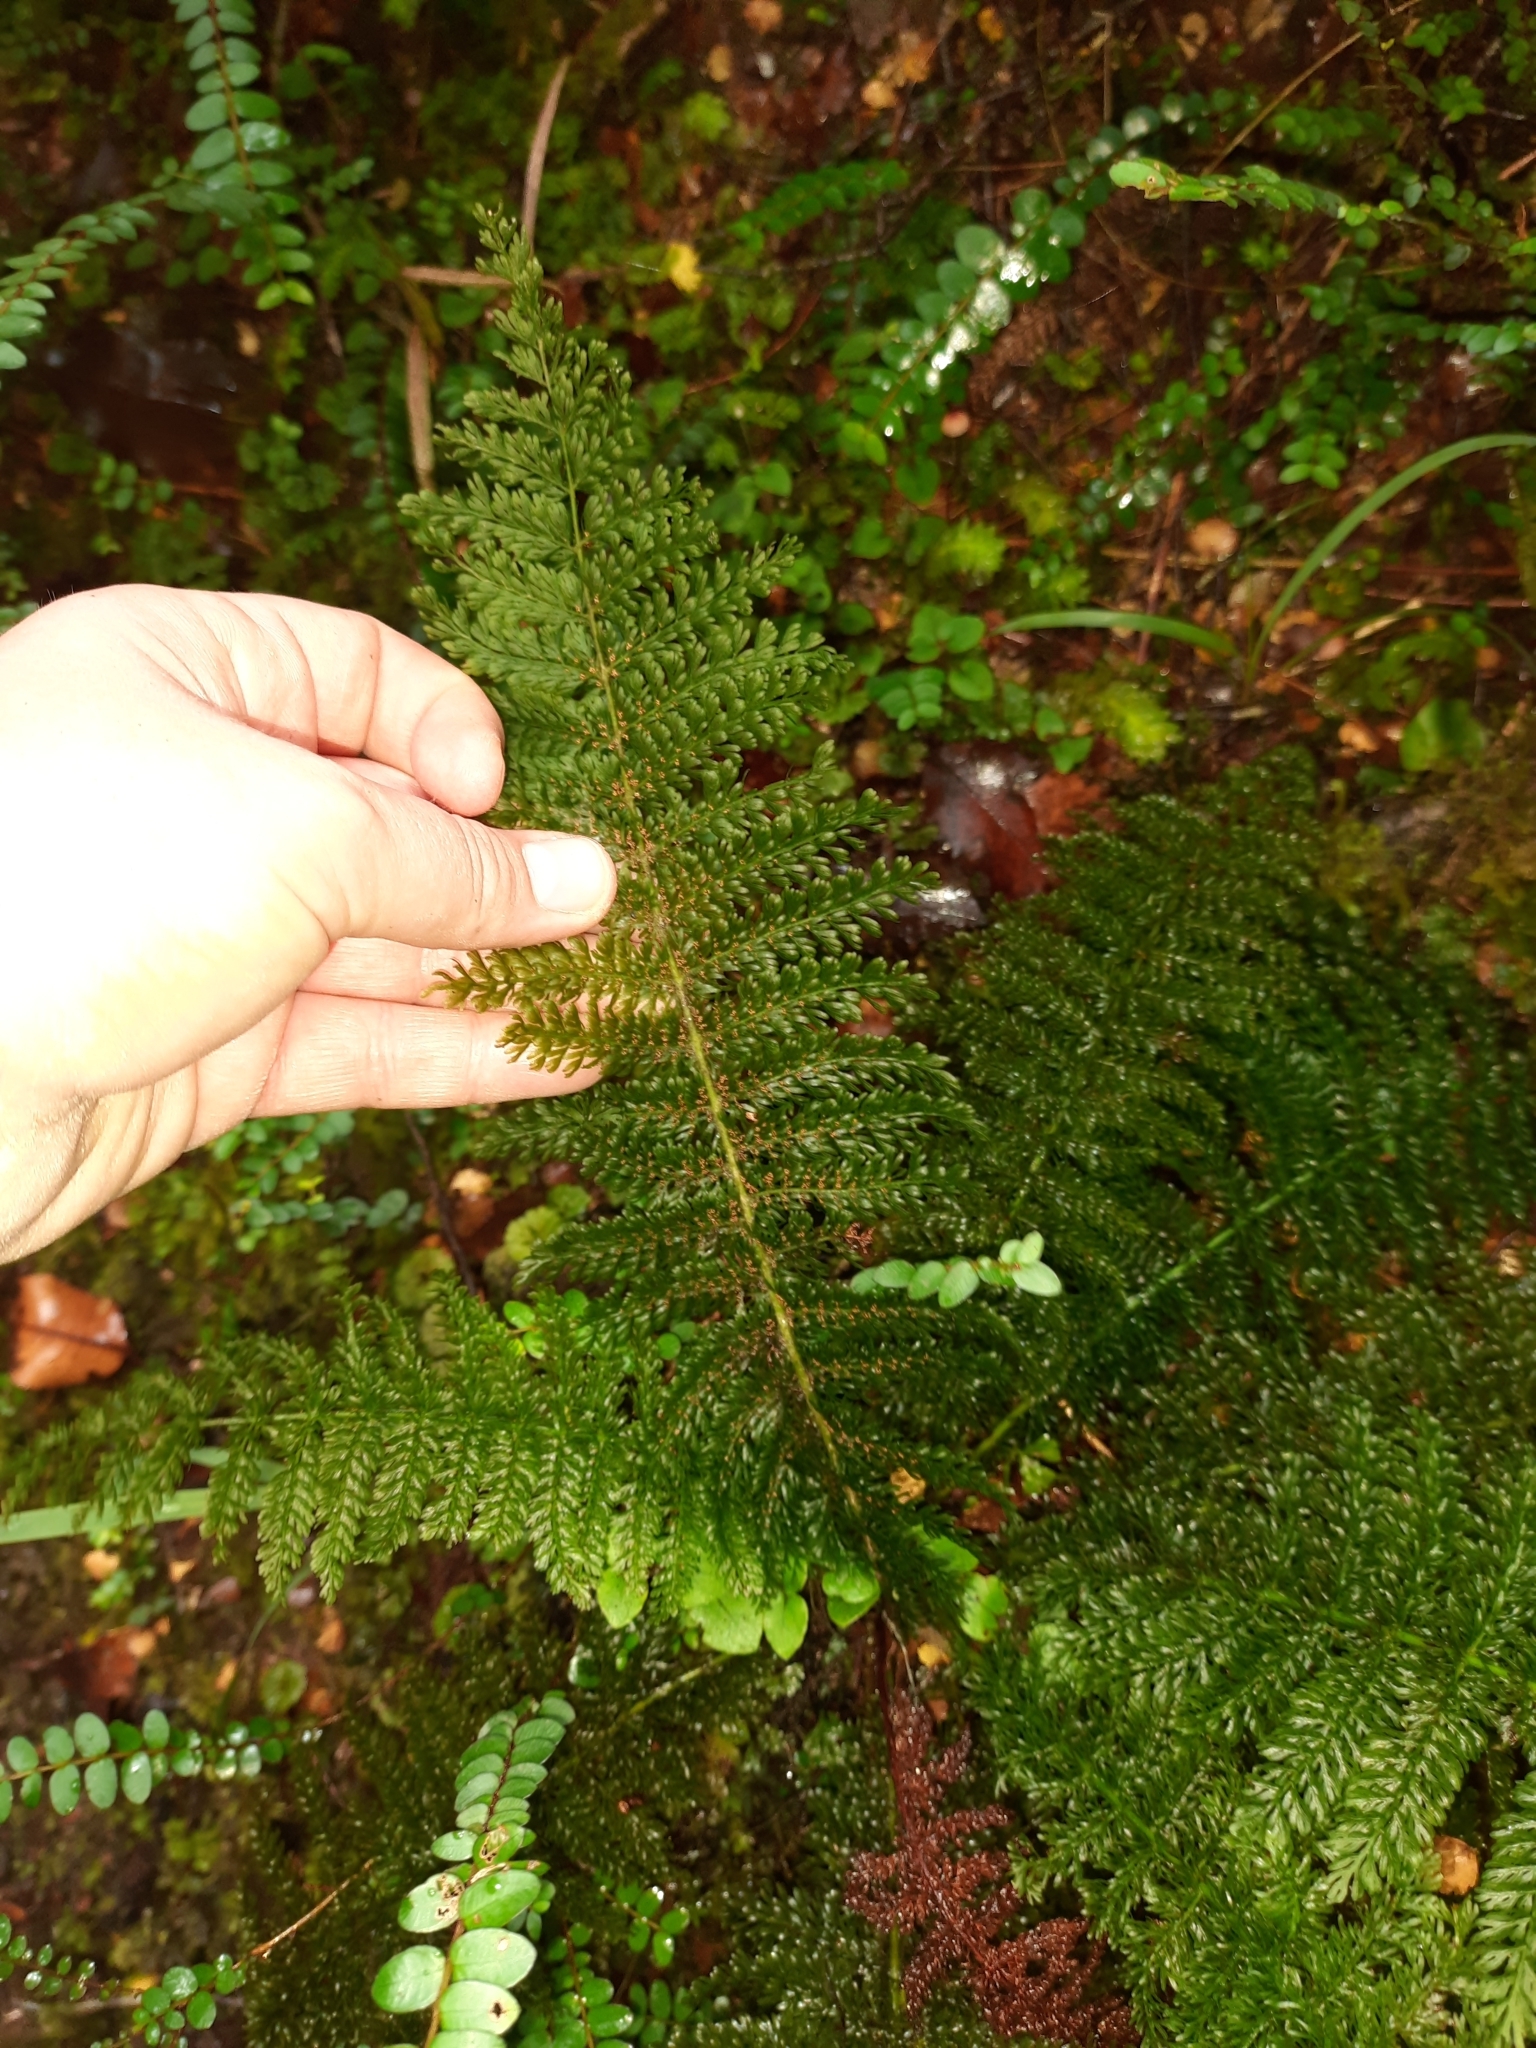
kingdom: Plantae
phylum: Tracheophyta
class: Polypodiopsida
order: Osmundales
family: Osmundaceae
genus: Leptopteris
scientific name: Leptopteris superba
